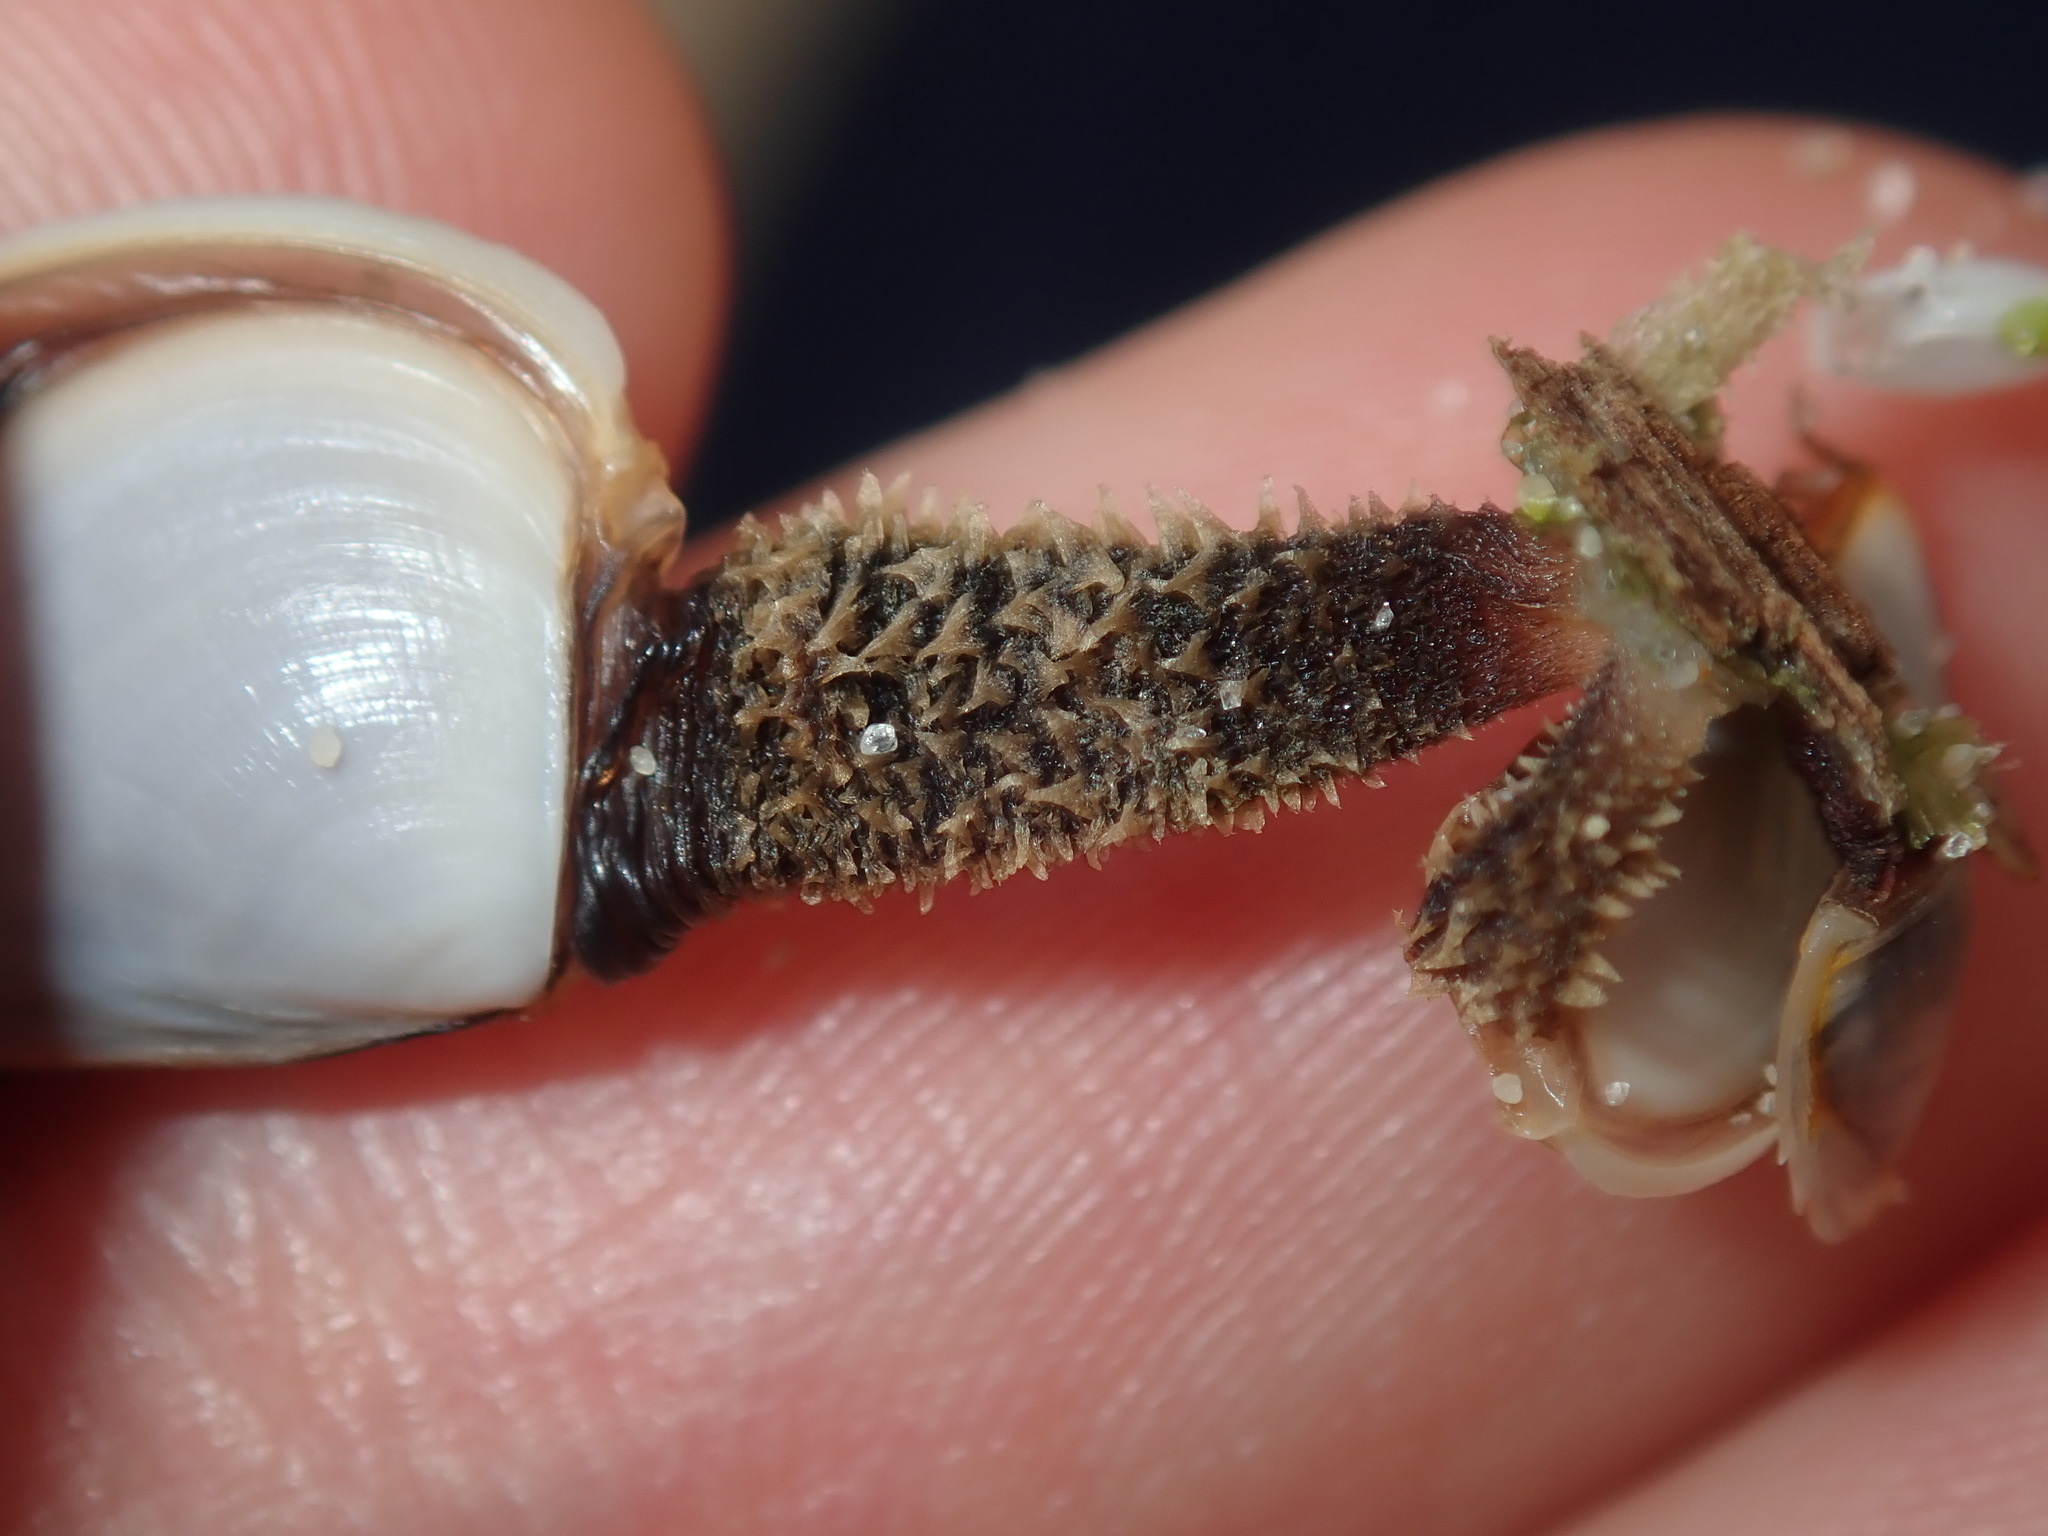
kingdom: Animalia
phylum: Arthropoda
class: Maxillopoda
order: Pedunculata
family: Lepadidae
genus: Lepas
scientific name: Lepas testudinata
